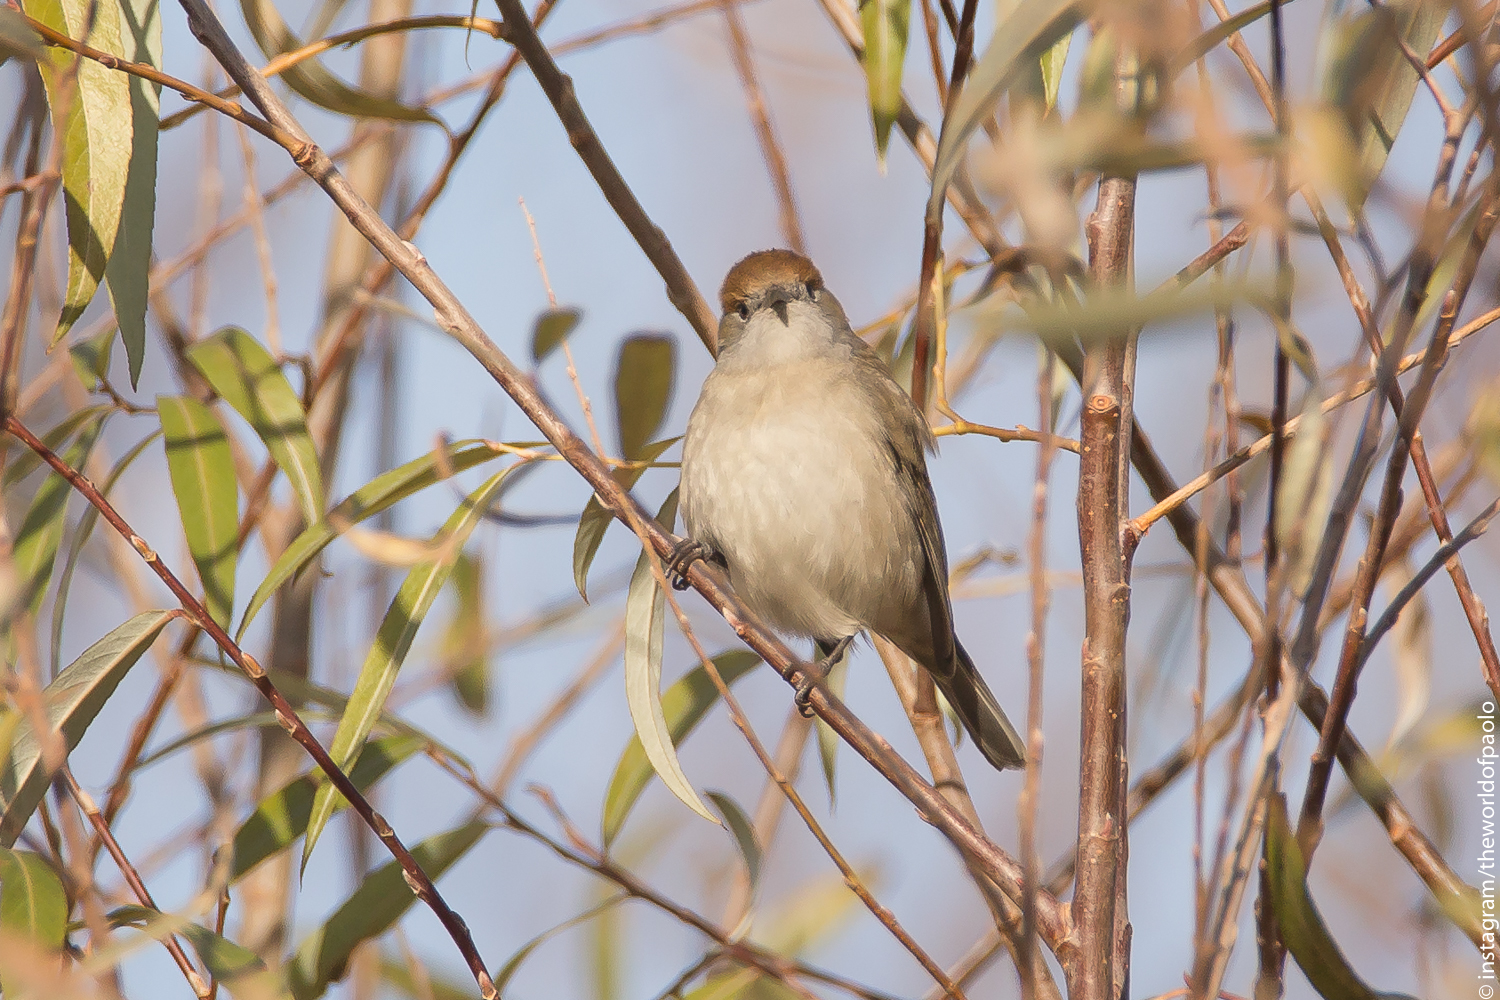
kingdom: Animalia
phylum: Chordata
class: Aves
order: Passeriformes
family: Sylviidae
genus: Sylvia
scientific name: Sylvia atricapilla
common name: Eurasian blackcap
